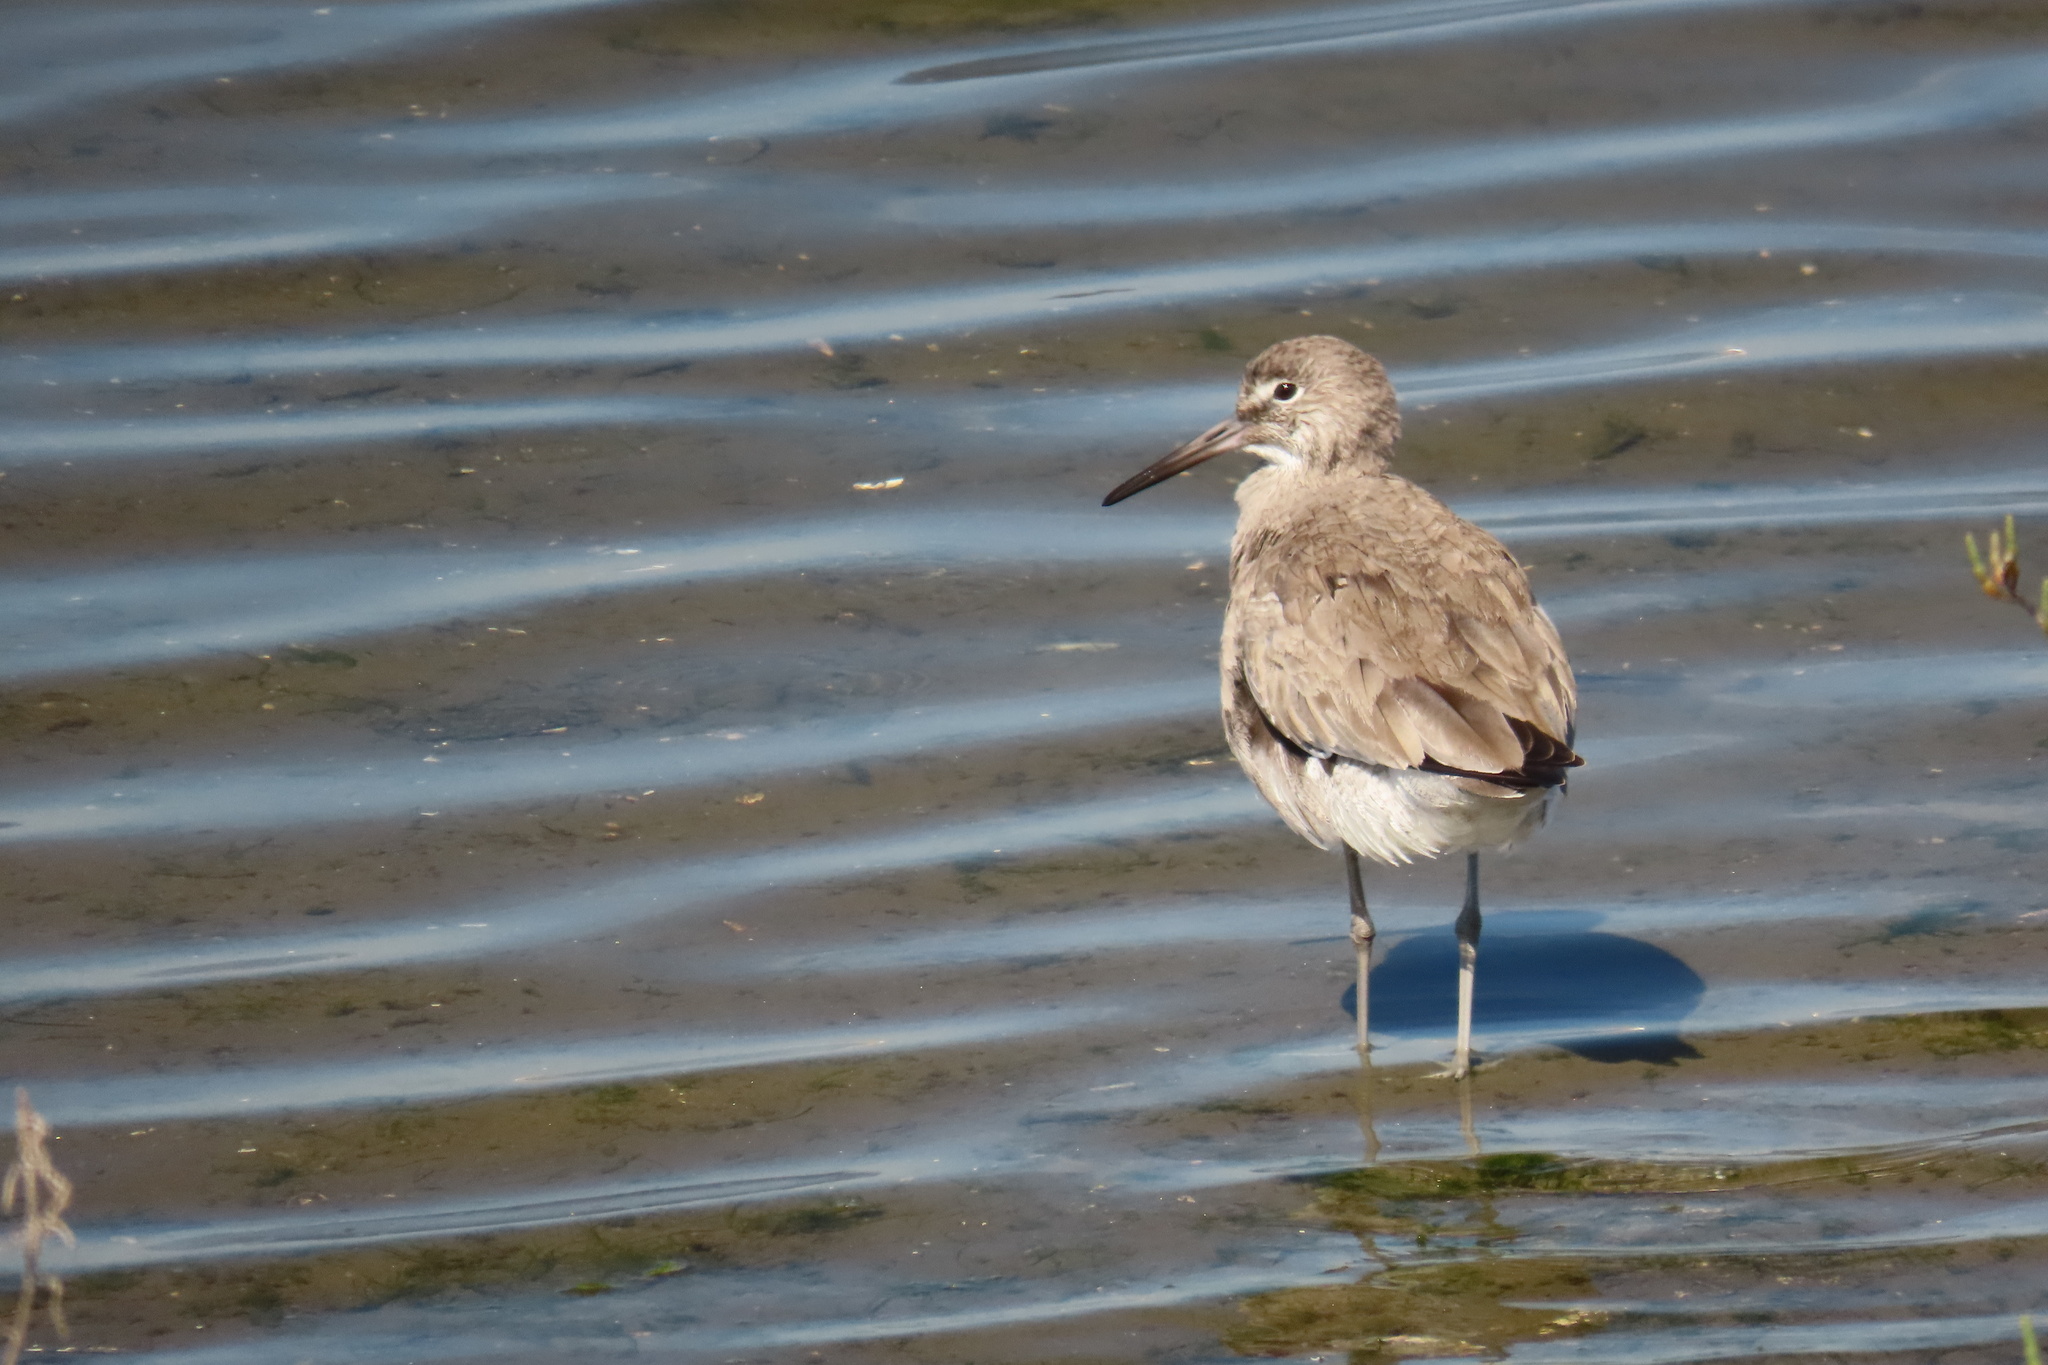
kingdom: Animalia
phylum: Chordata
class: Aves
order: Charadriiformes
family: Scolopacidae
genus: Tringa
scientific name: Tringa semipalmata
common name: Willet
